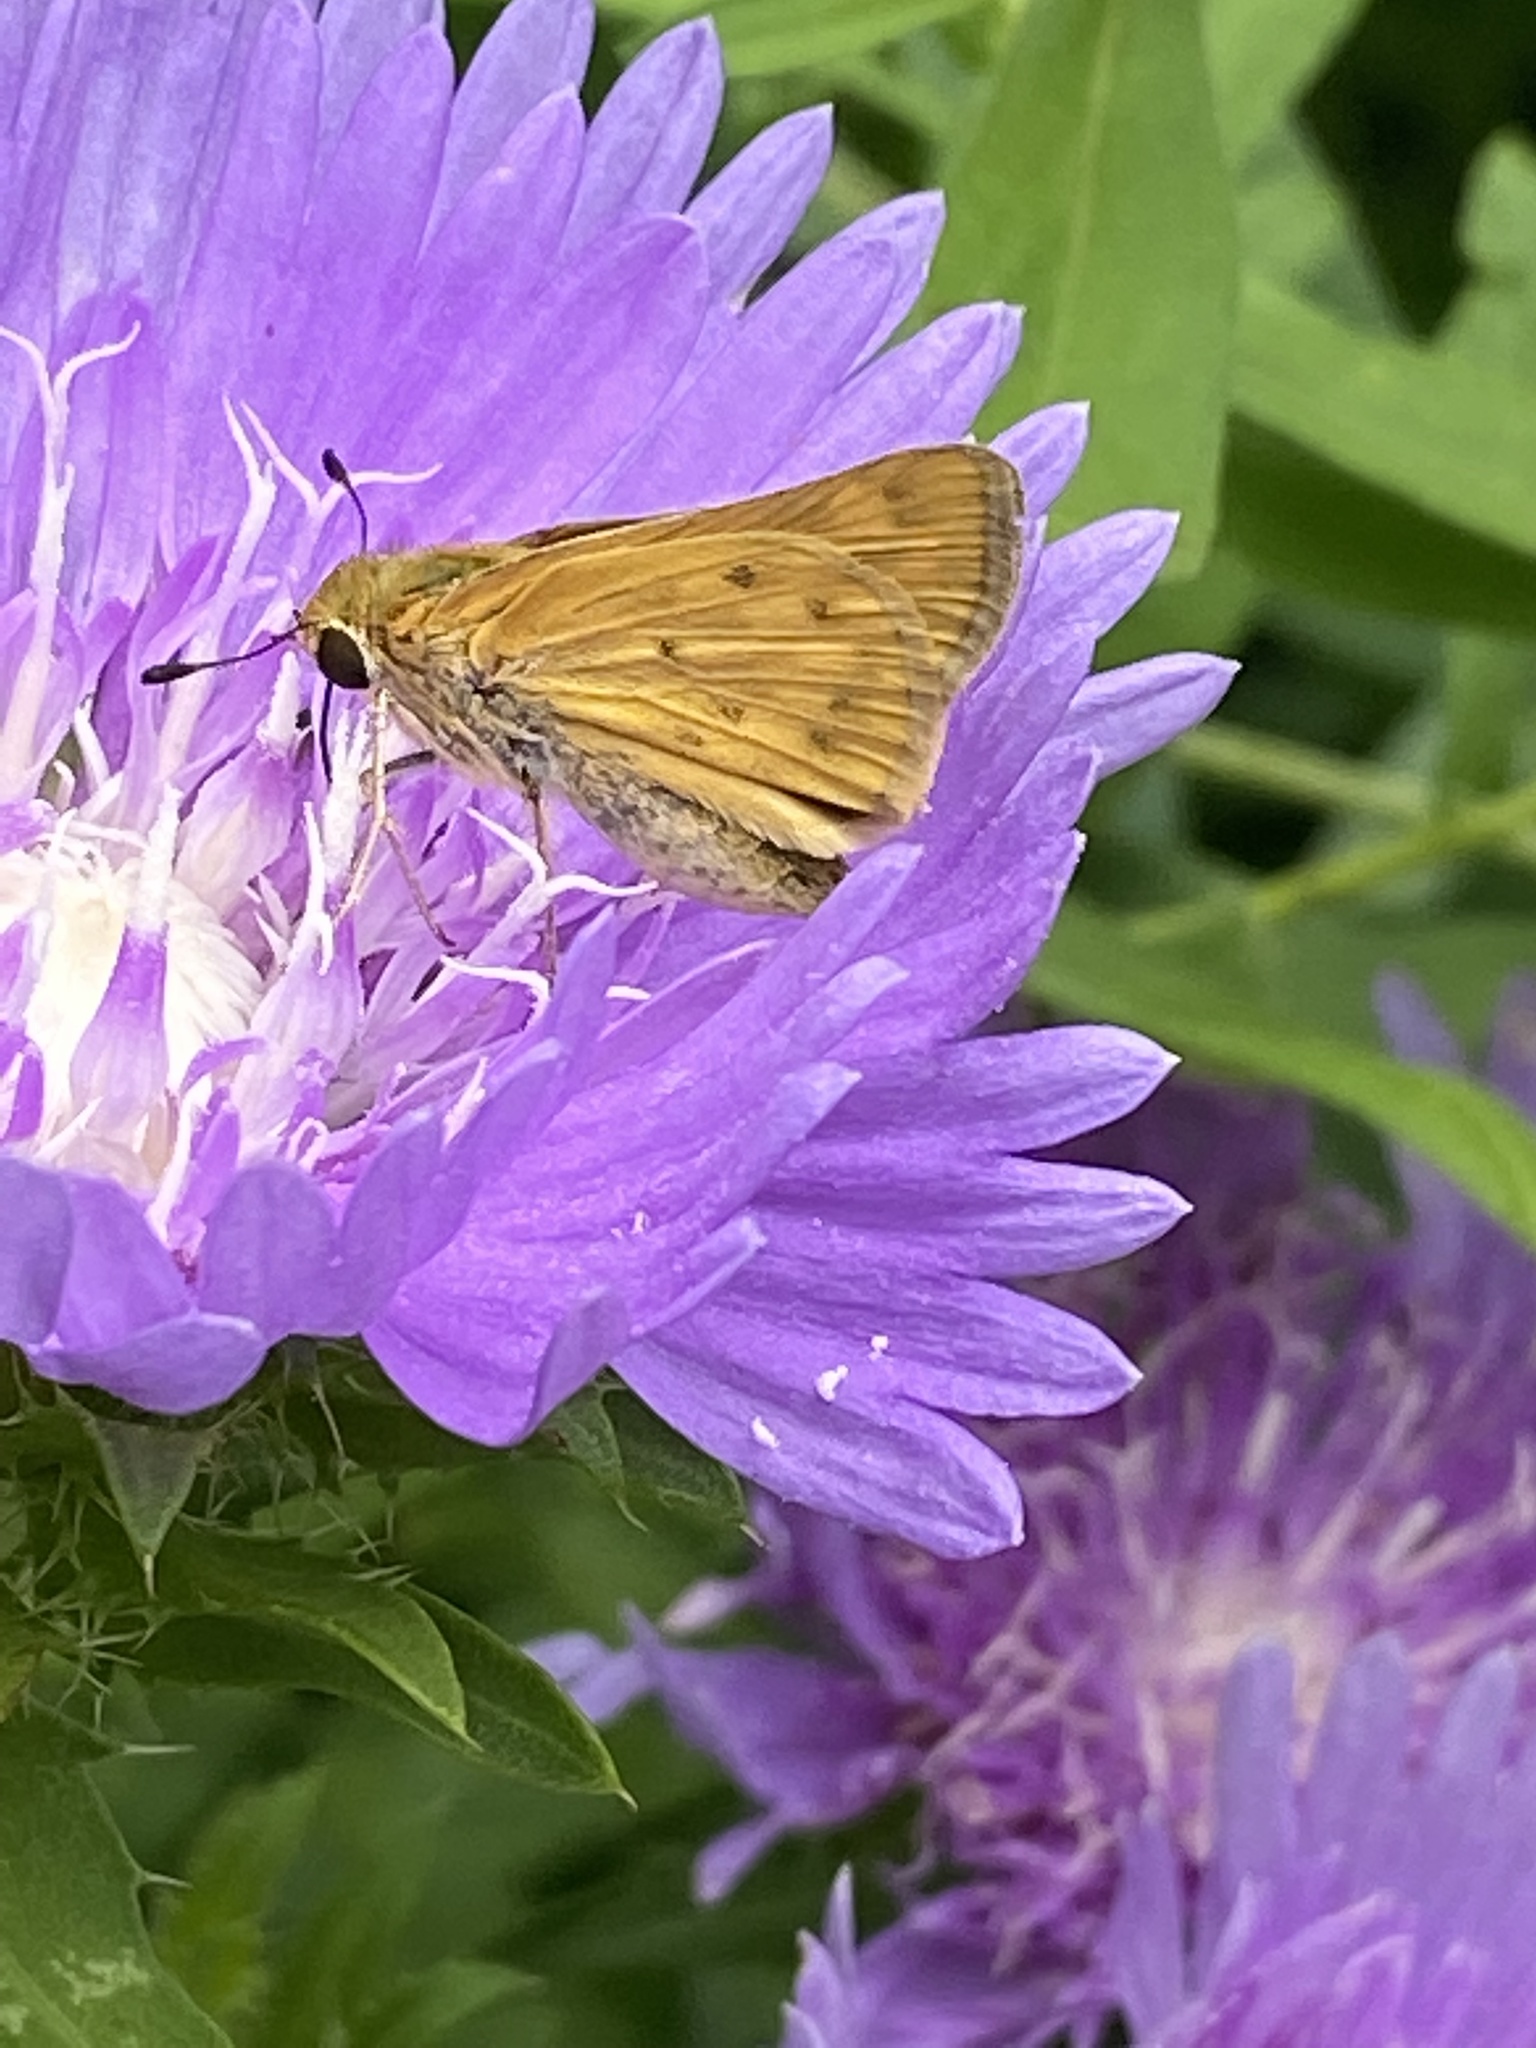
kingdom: Animalia
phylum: Arthropoda
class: Insecta
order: Lepidoptera
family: Hesperiidae
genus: Hylephila
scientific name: Hylephila phyleus
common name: Fiery skipper
